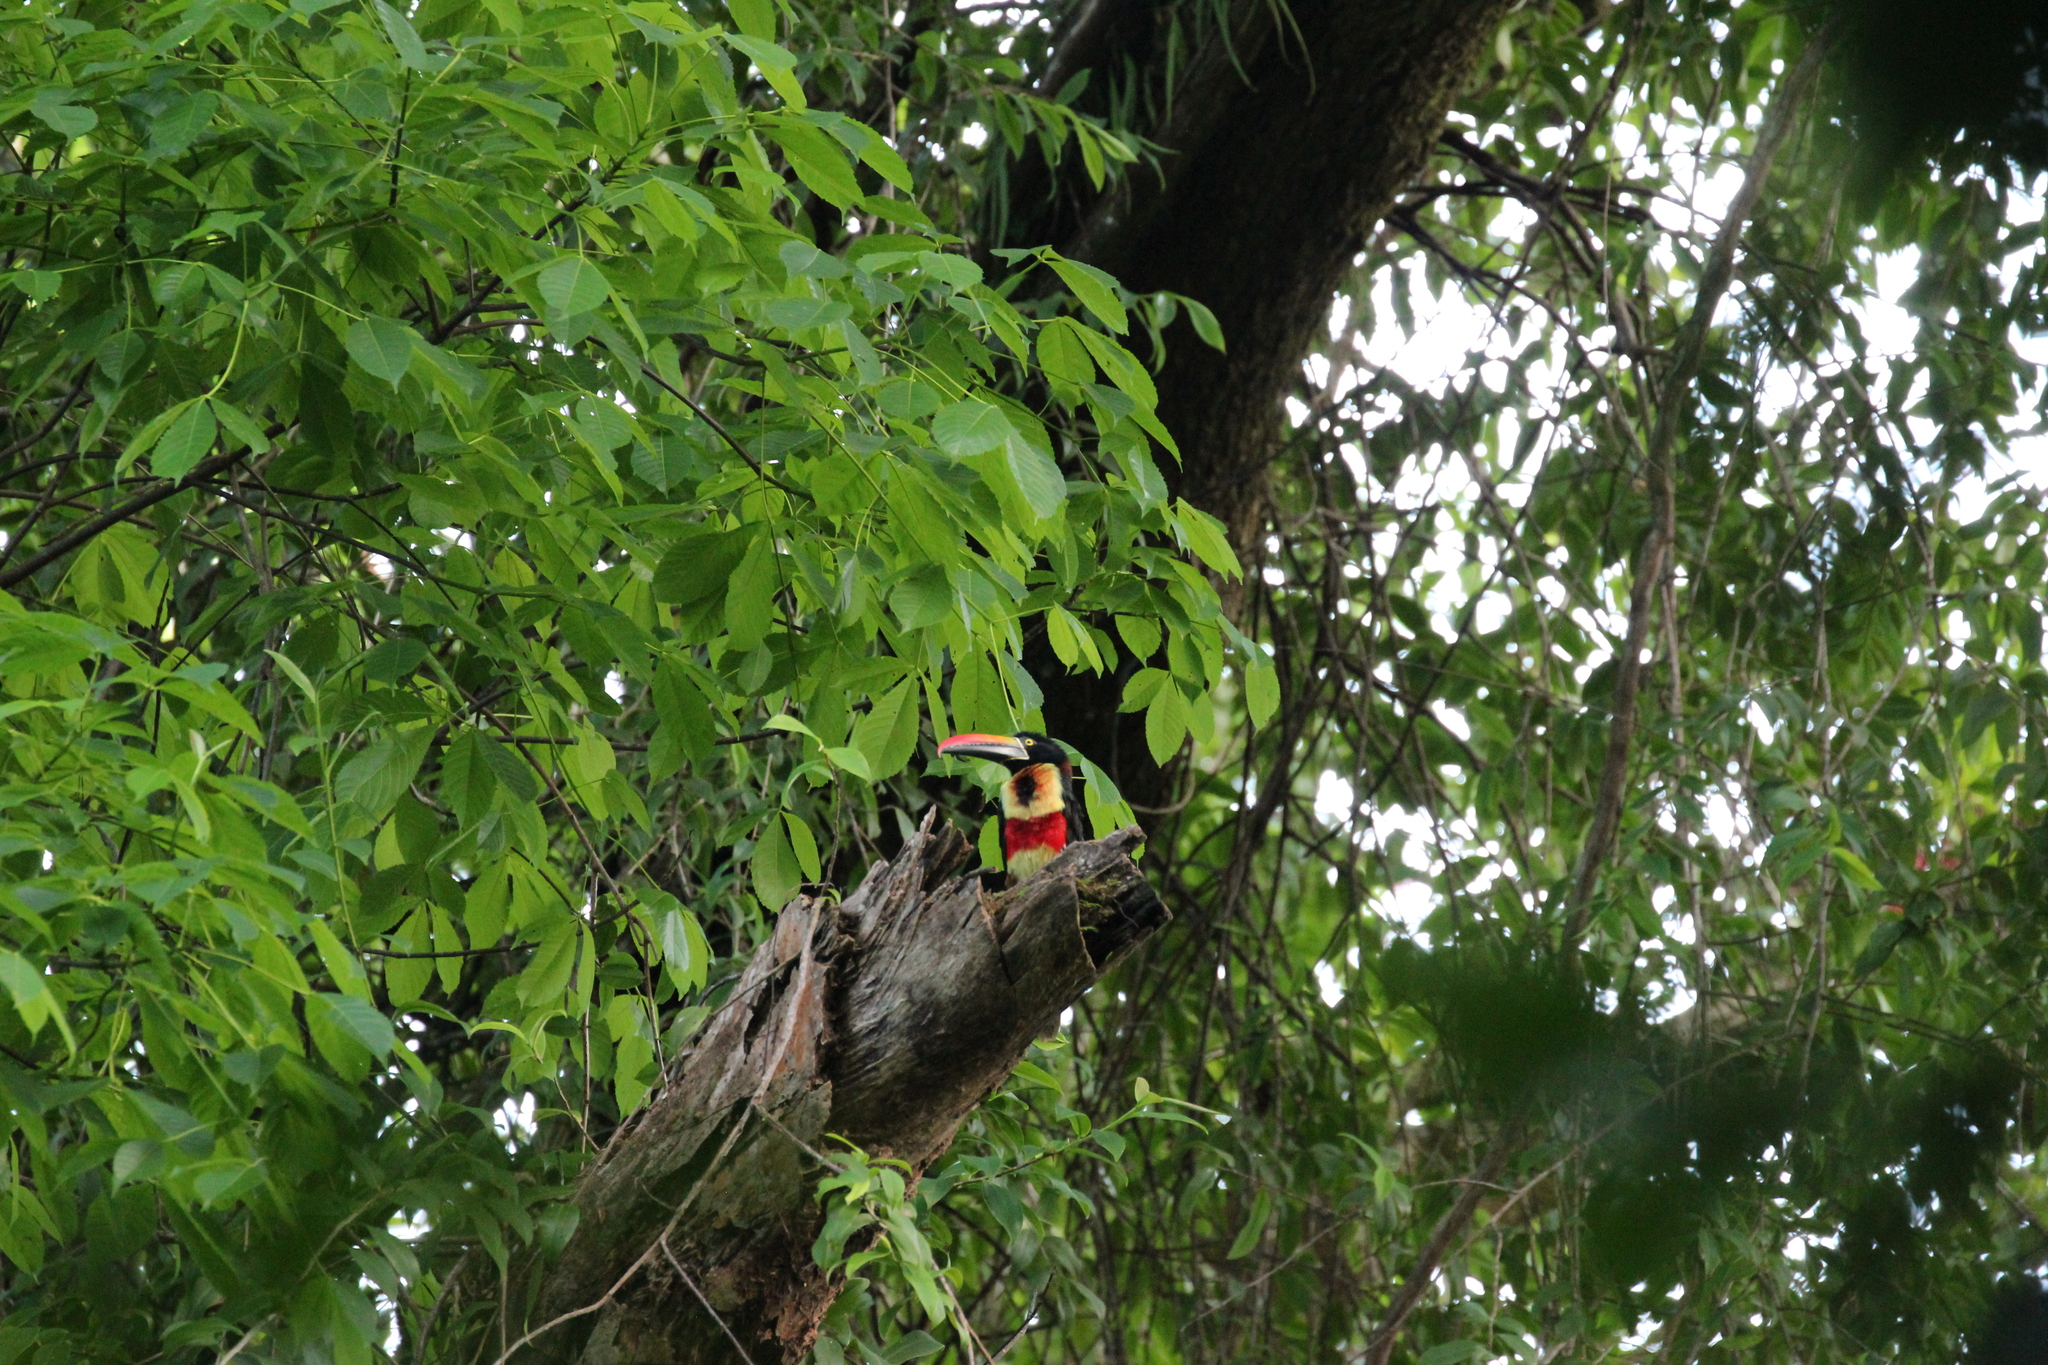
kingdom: Animalia
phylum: Chordata
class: Aves
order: Piciformes
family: Ramphastidae
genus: Pteroglossus
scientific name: Pteroglossus frantzii
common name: Fiery-billed aracari
